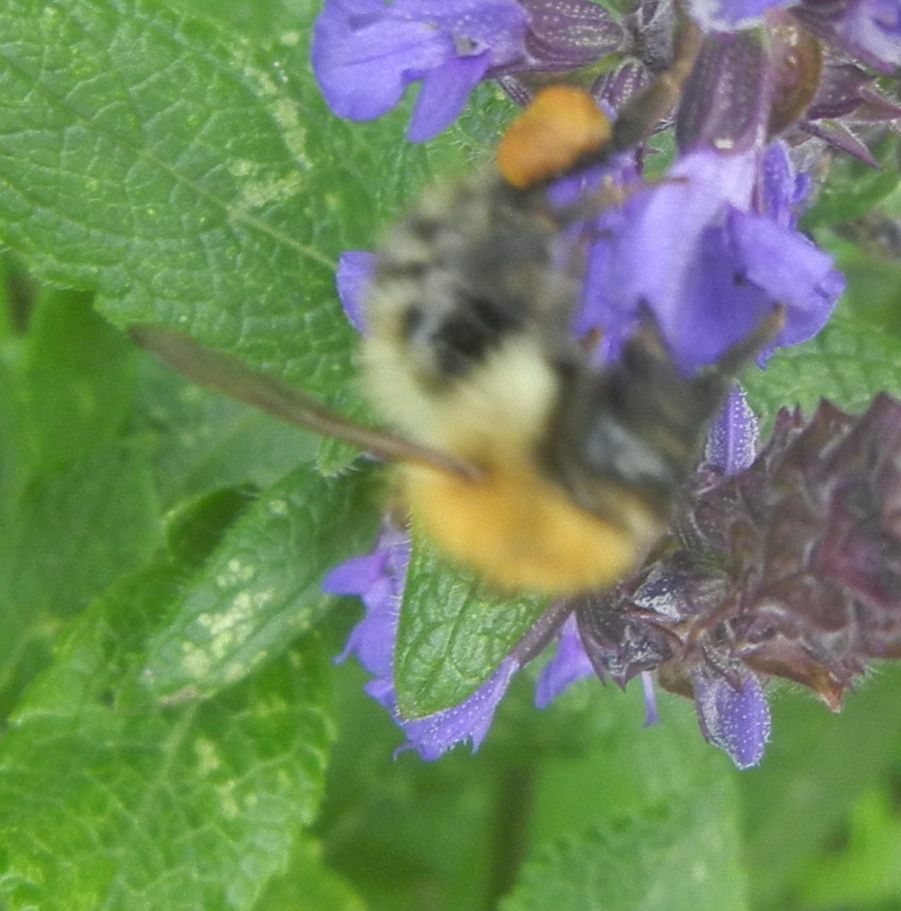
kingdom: Animalia
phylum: Arthropoda
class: Insecta
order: Hymenoptera
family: Apidae
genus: Bombus
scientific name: Bombus pascuorum
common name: Common carder bee
